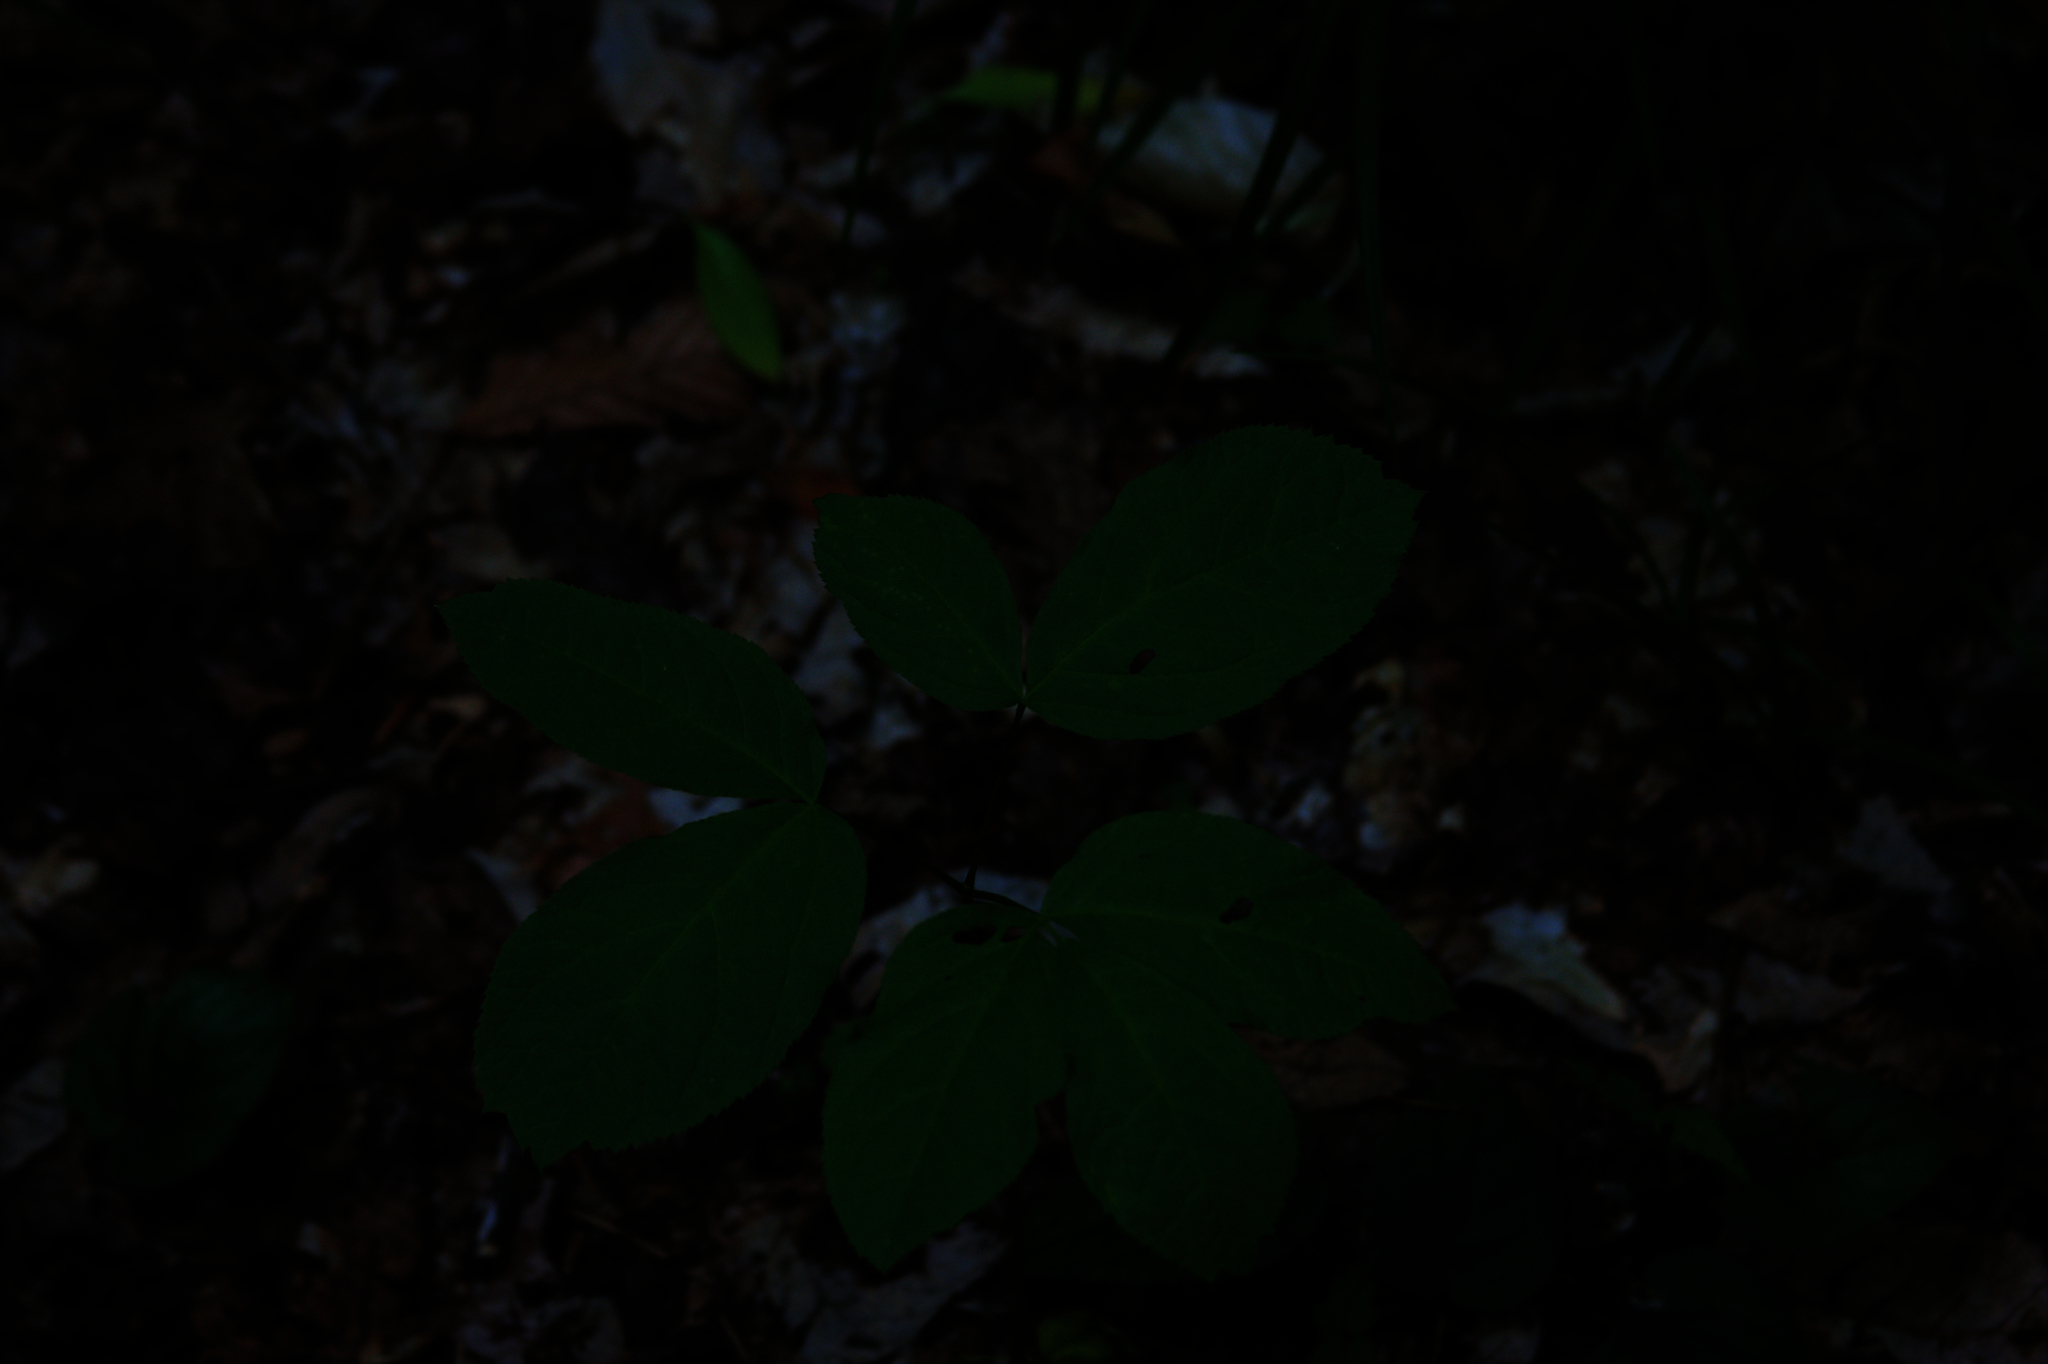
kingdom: Plantae
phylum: Tracheophyta
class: Magnoliopsida
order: Apiales
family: Araliaceae
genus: Aralia
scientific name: Aralia nudicaulis
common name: Wild sarsaparilla
